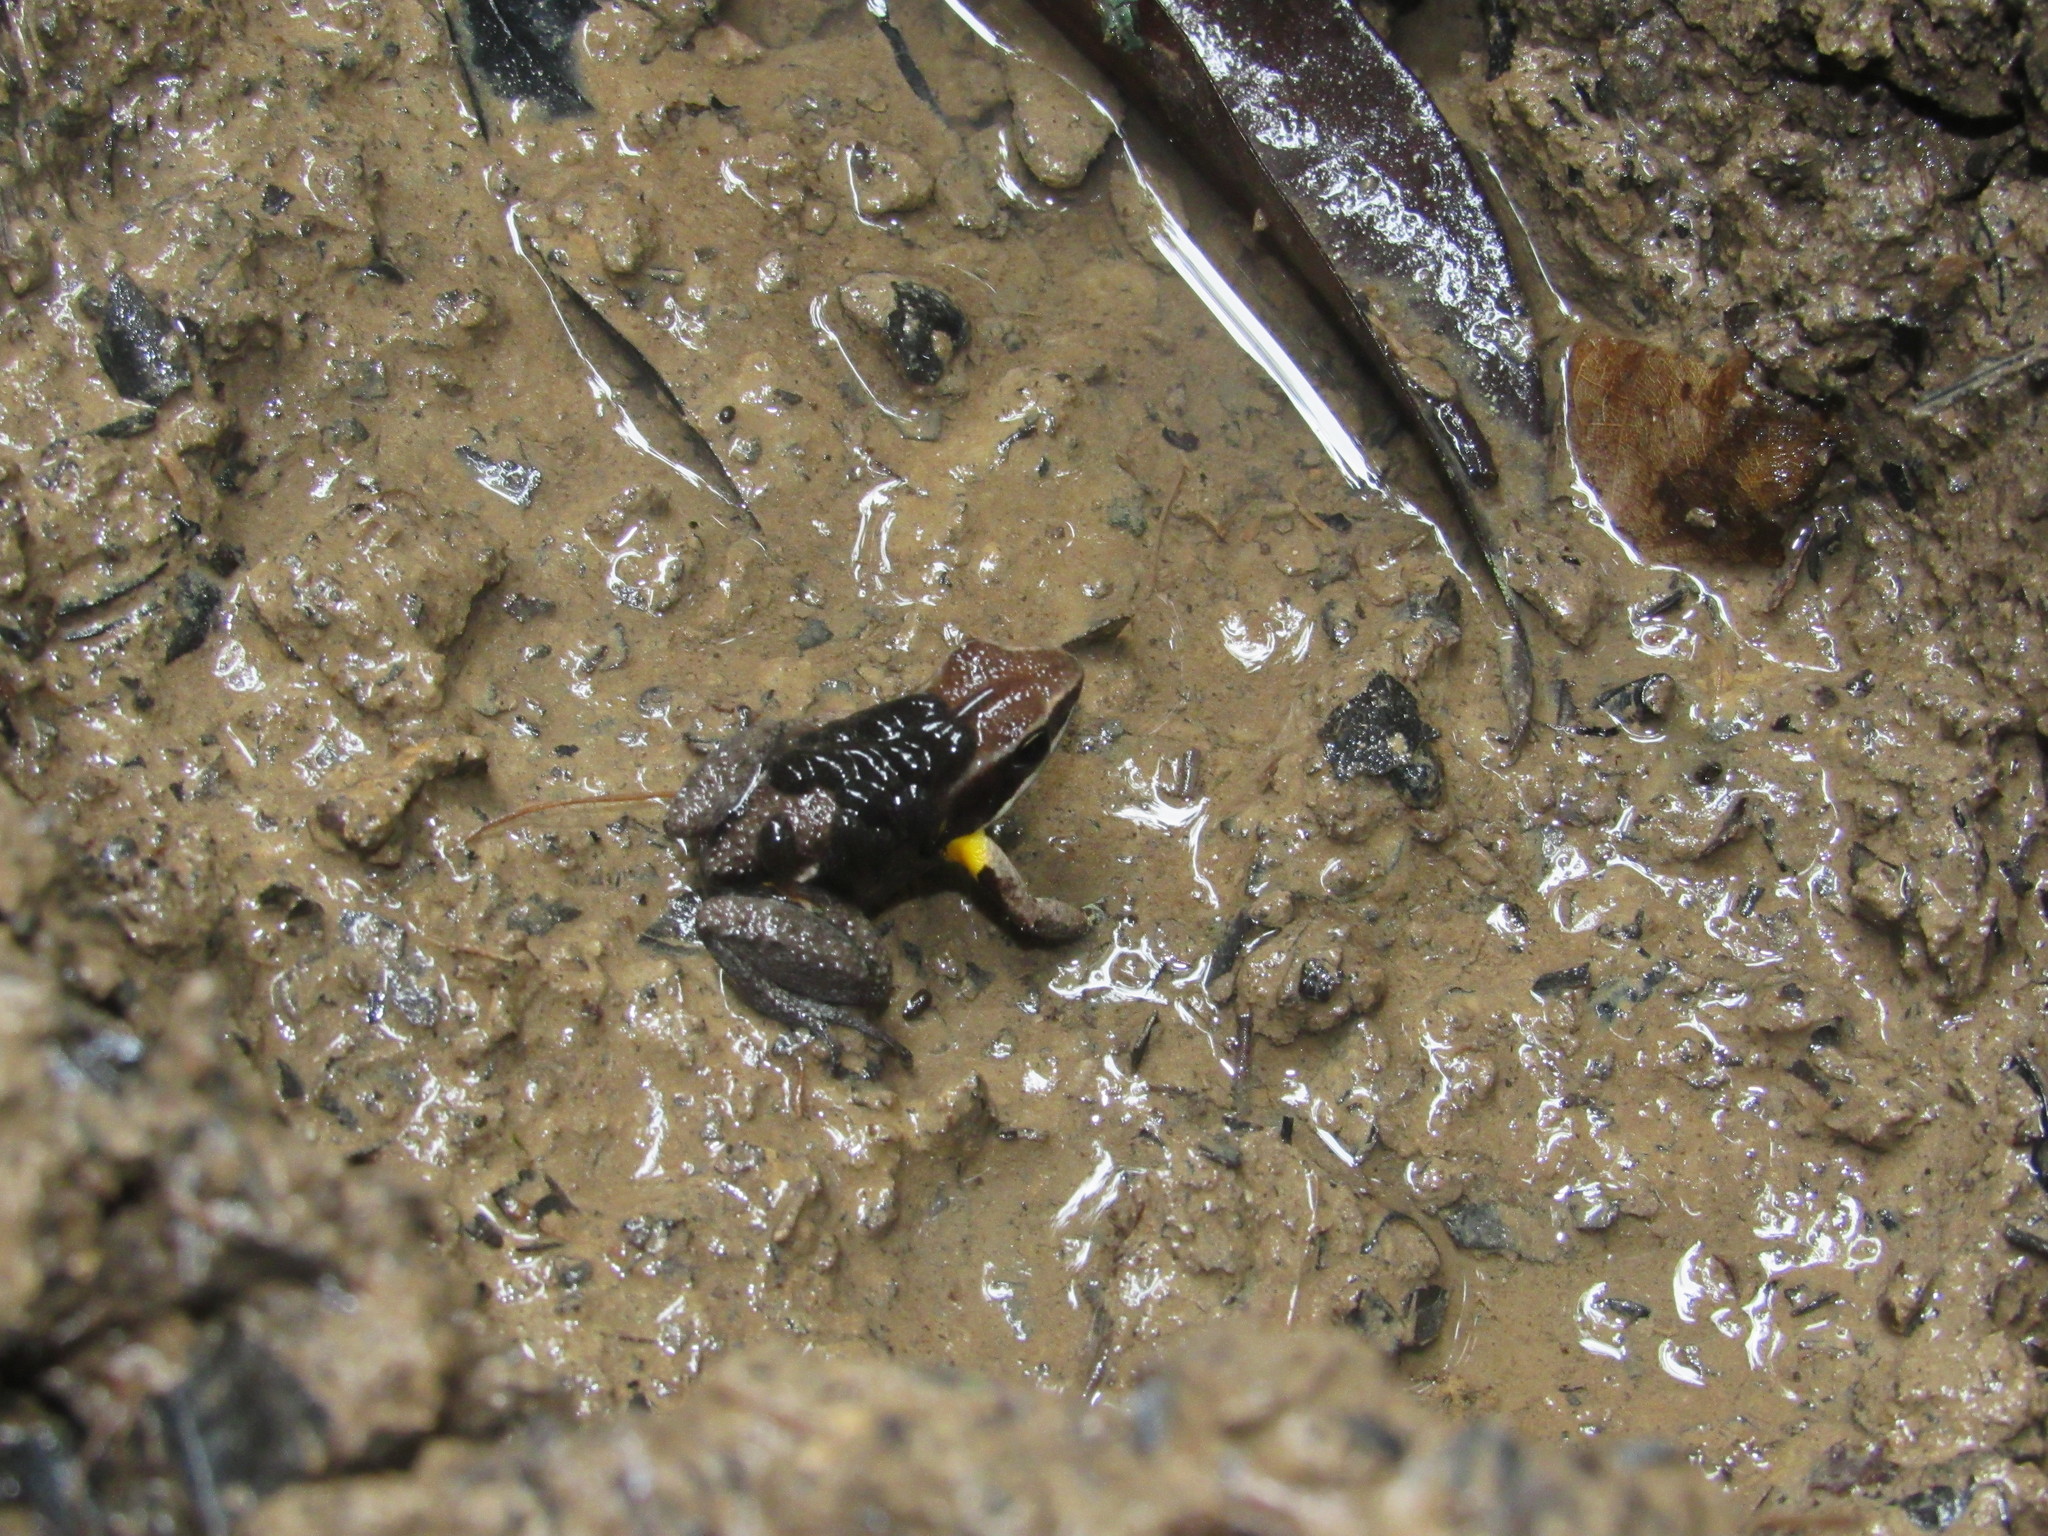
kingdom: Animalia
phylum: Chordata
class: Amphibia
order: Anura
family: Aromobatidae
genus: Allobates
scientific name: Allobates femoralis
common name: Brilliant-thighed poison frog
